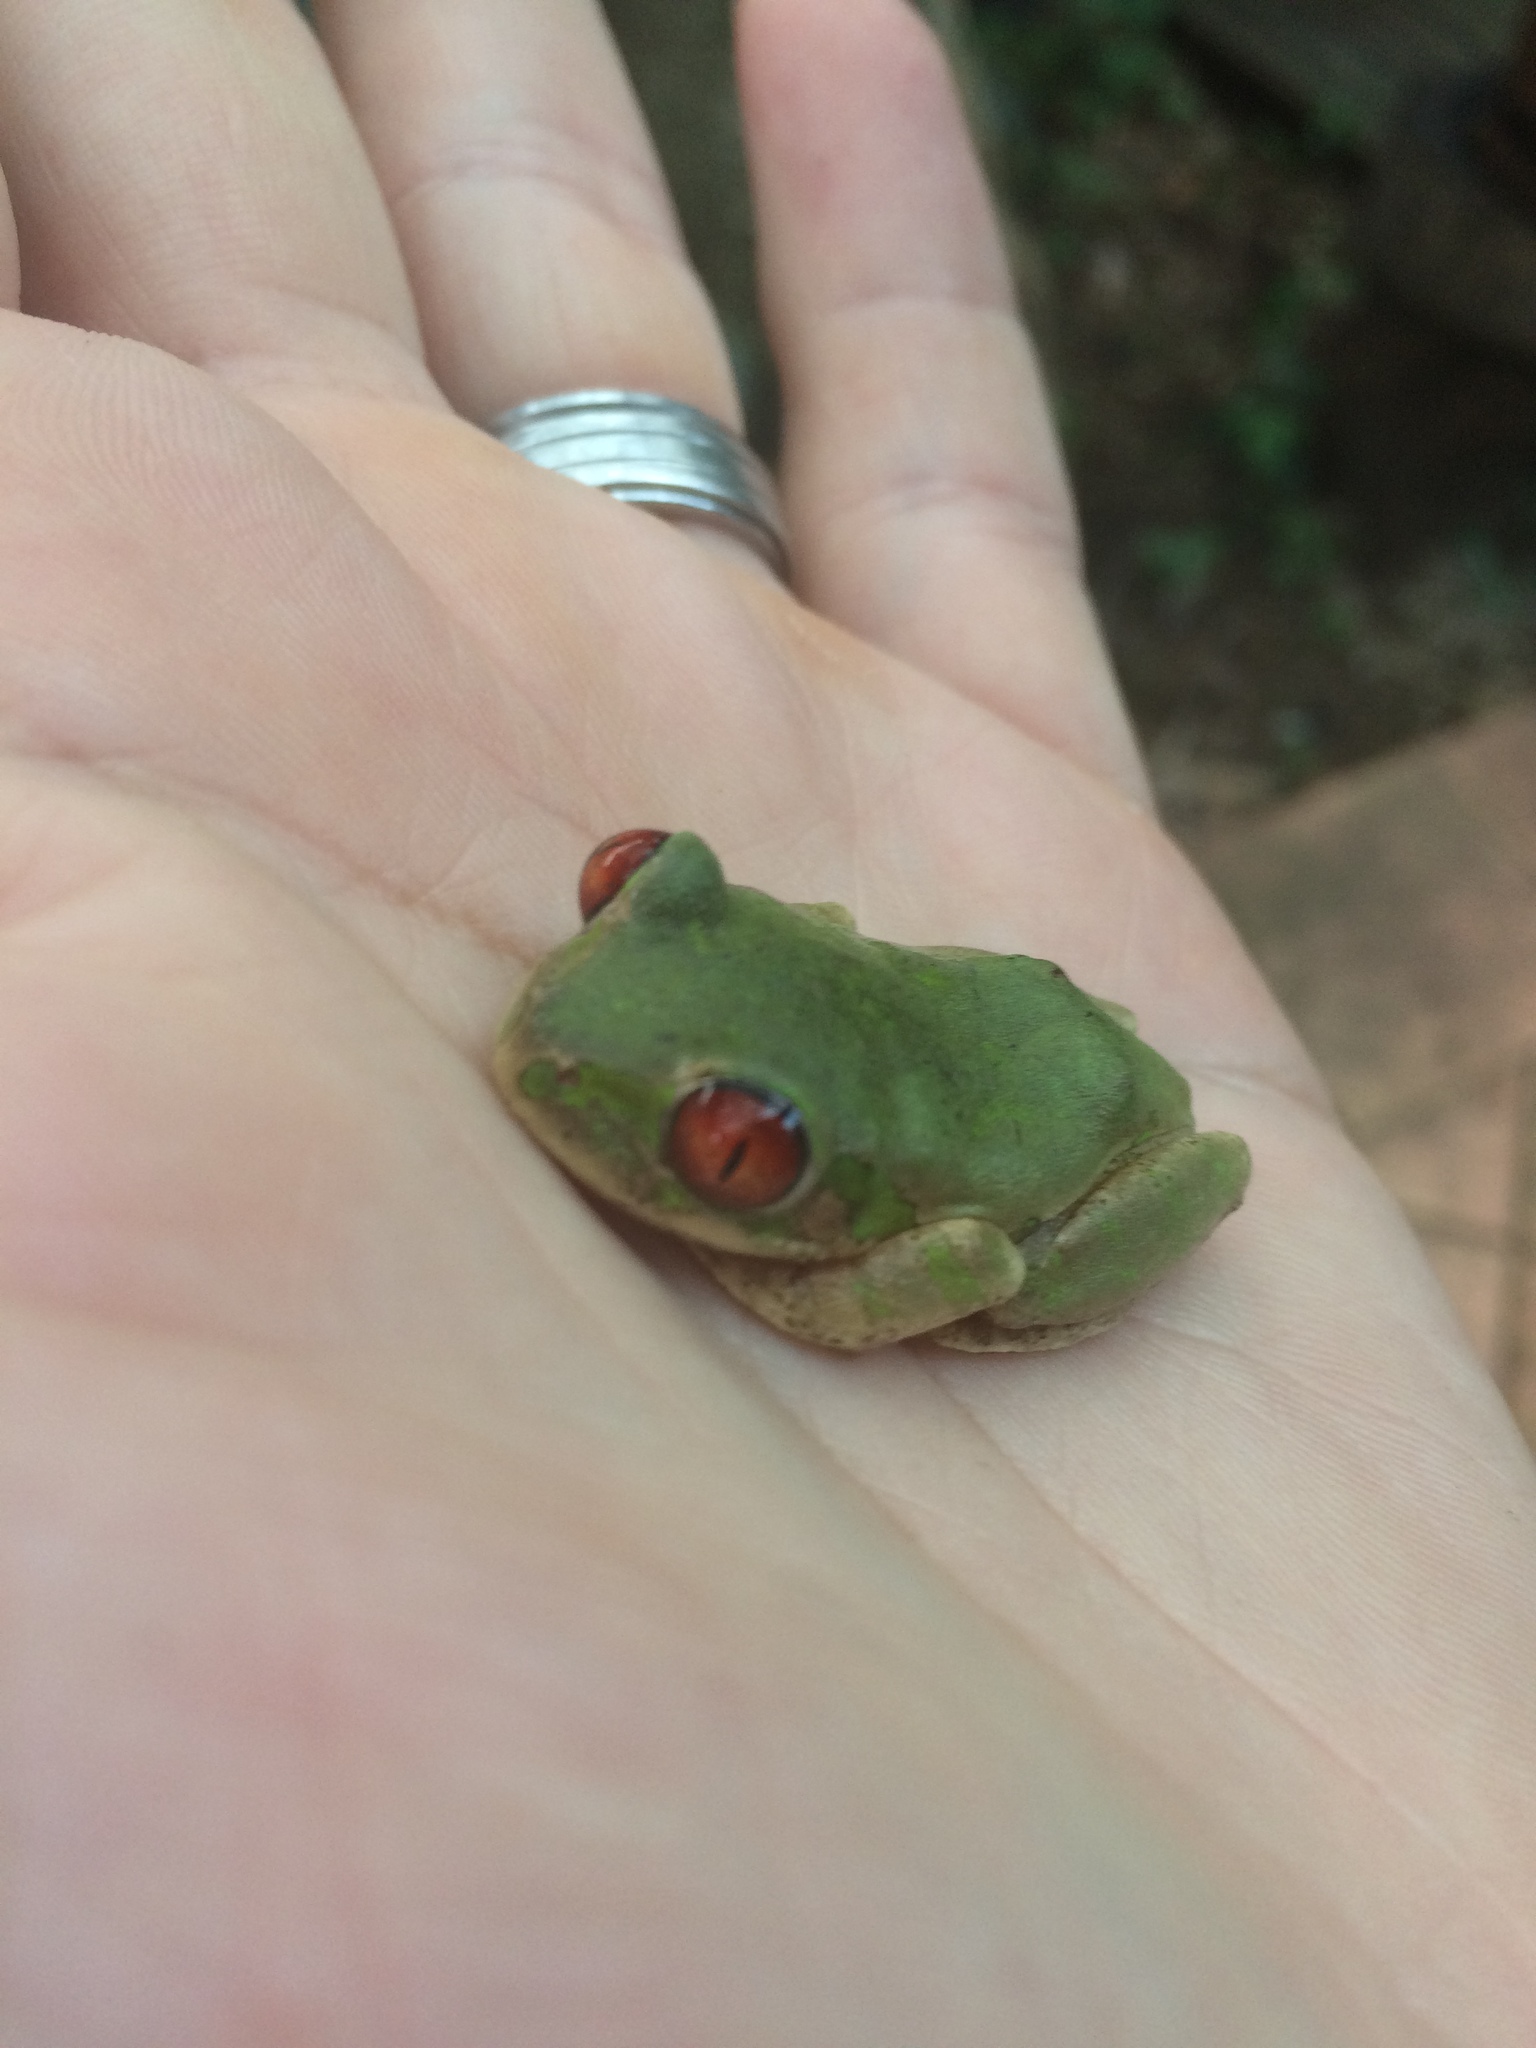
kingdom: Animalia
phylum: Chordata
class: Amphibia
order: Anura
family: Arthroleptidae
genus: Leptopelis
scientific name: Leptopelis natalensis
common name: Natal tree frog
